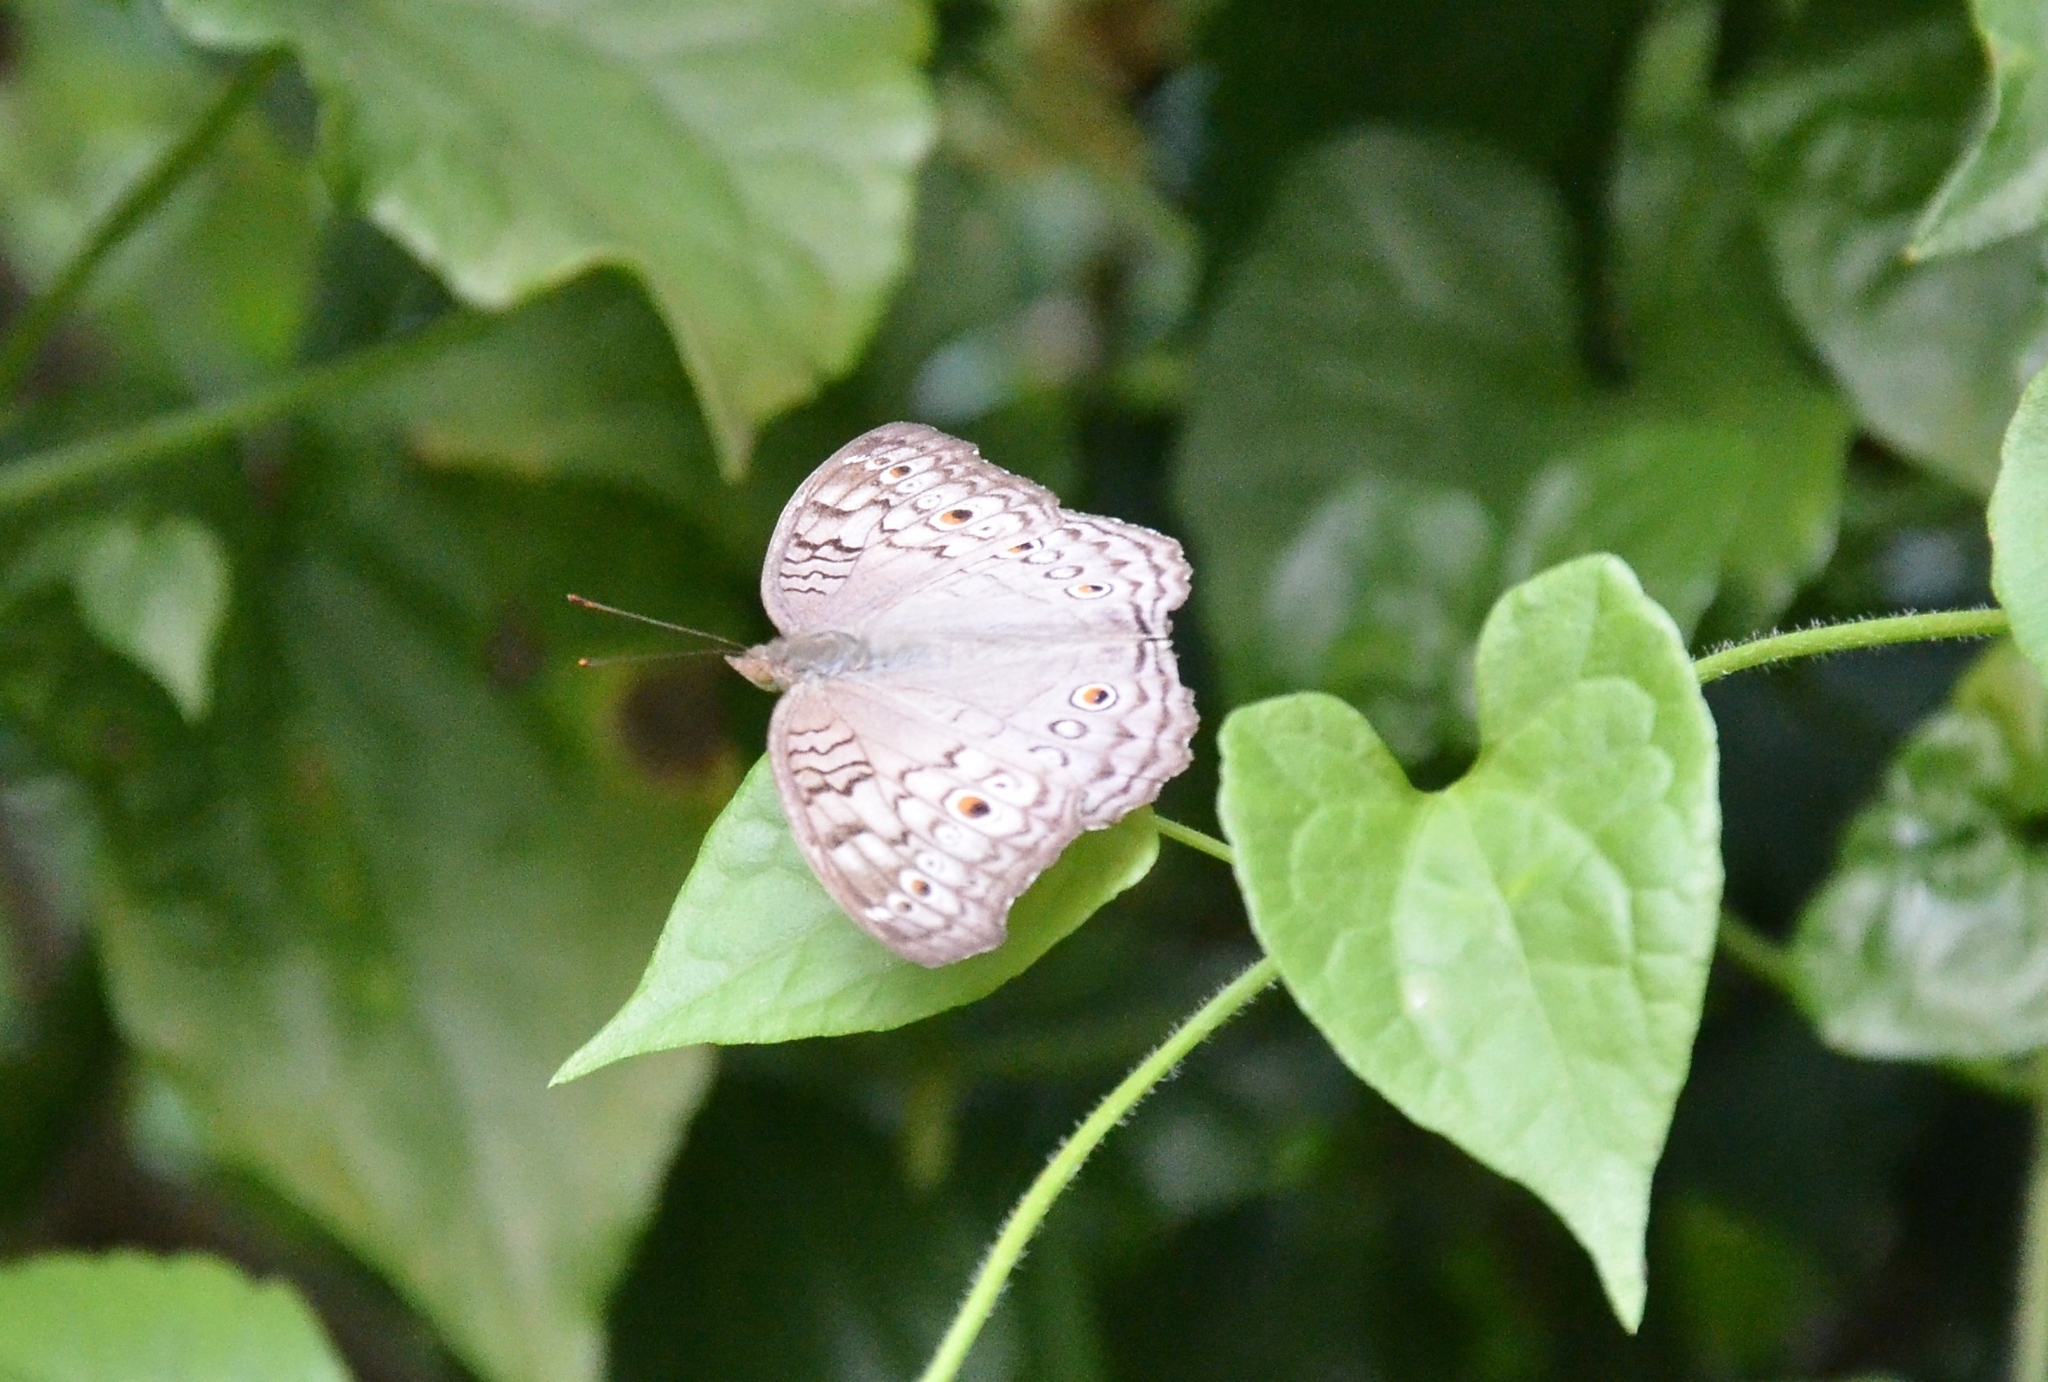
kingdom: Animalia
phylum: Arthropoda
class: Insecta
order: Lepidoptera
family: Nymphalidae
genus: Junonia
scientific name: Junonia atlites
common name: Grey pansy
